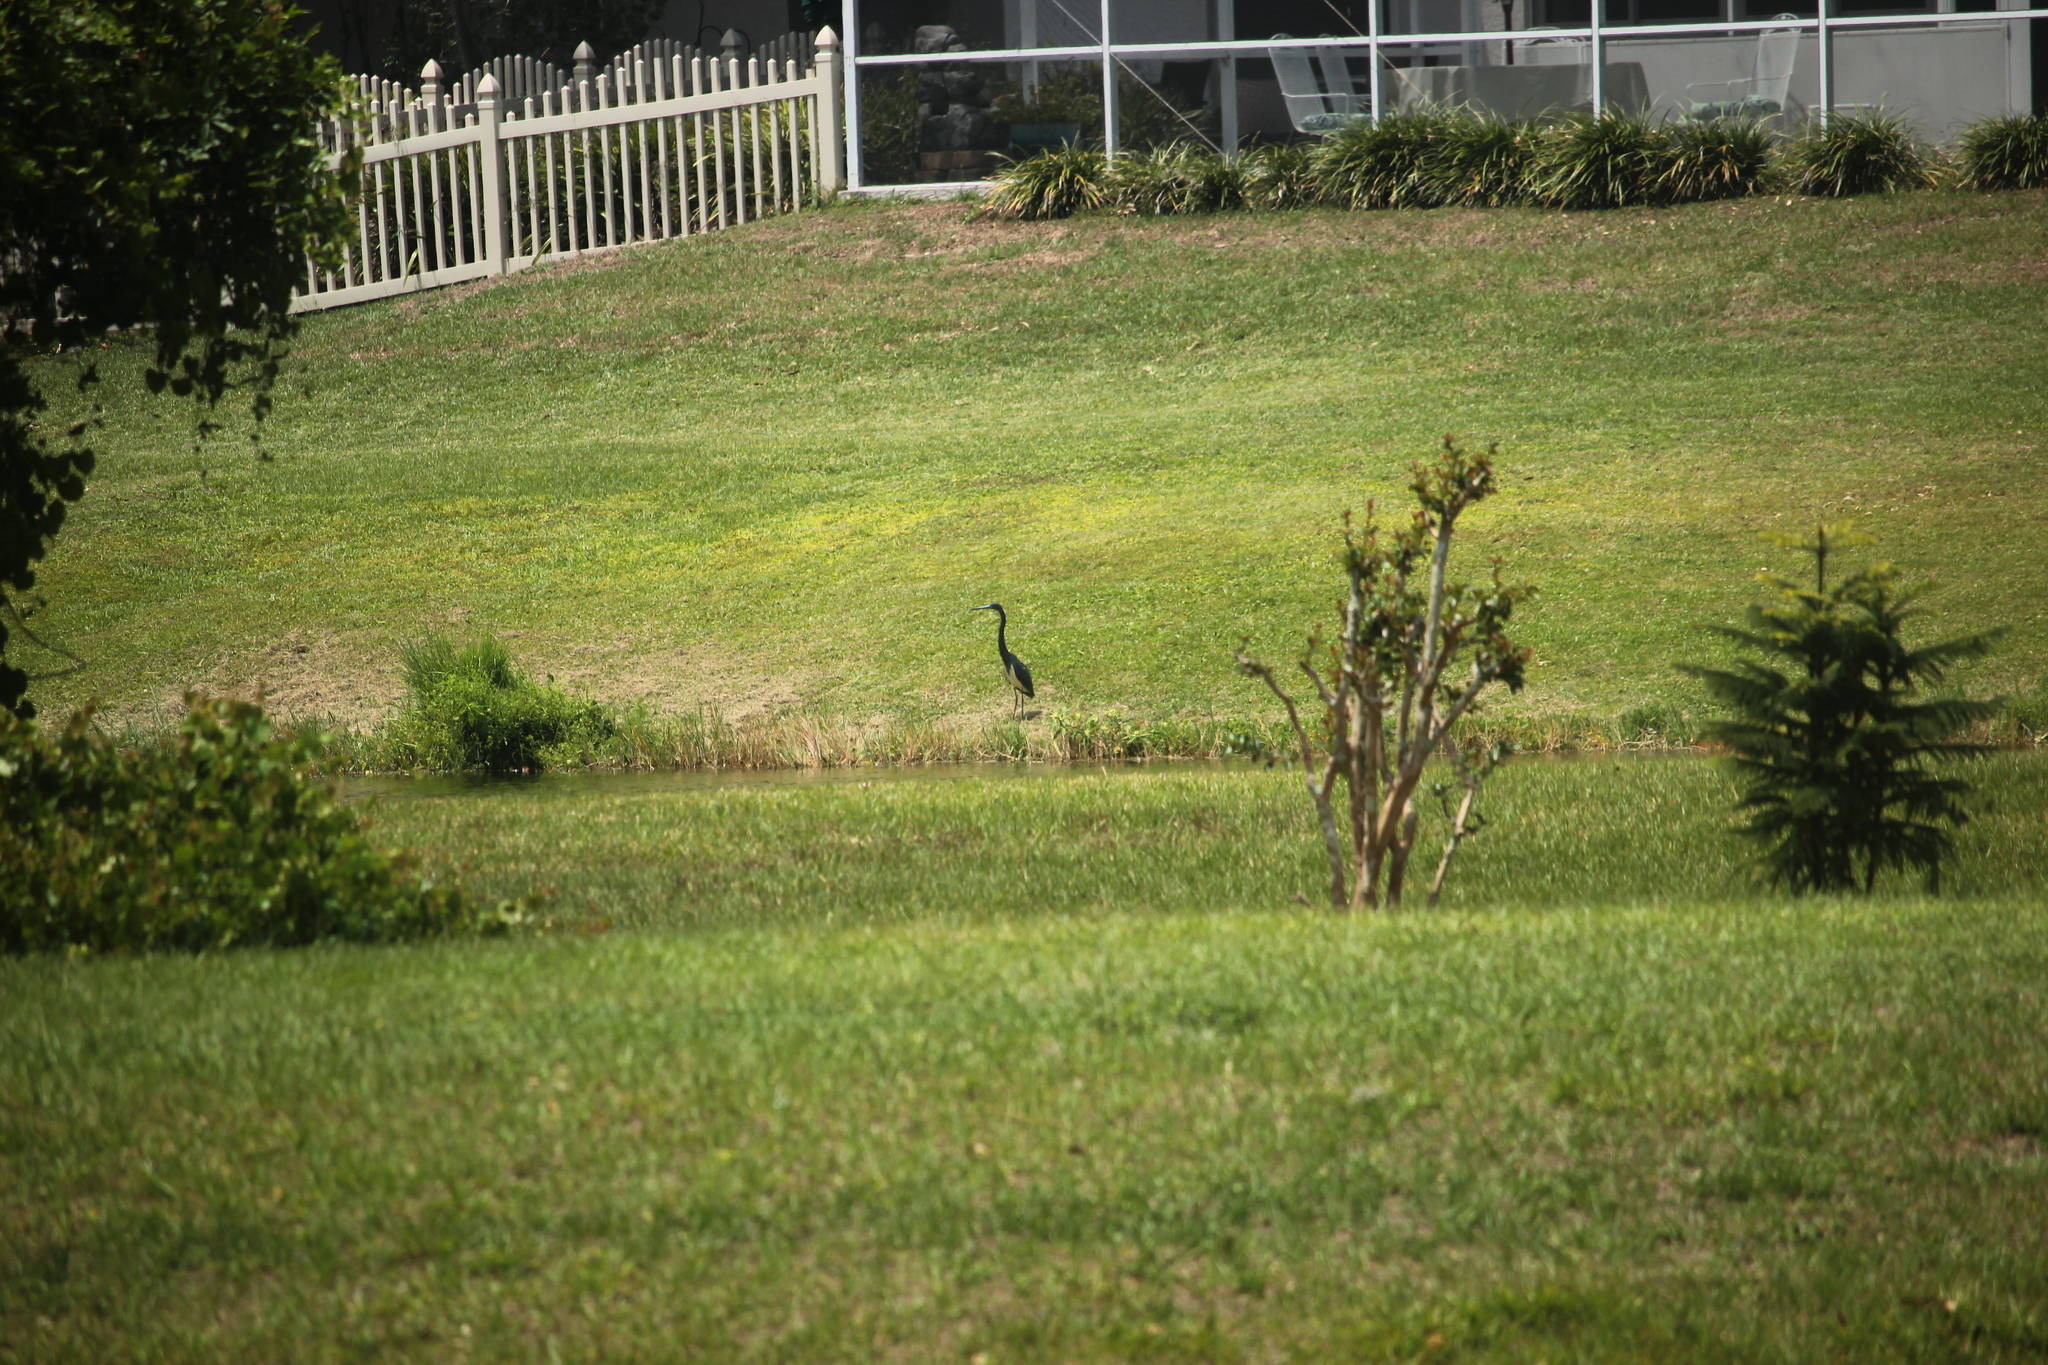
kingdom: Animalia
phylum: Chordata
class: Aves
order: Pelecaniformes
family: Ardeidae
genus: Egretta
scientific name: Egretta tricolor
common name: Tricolored heron
